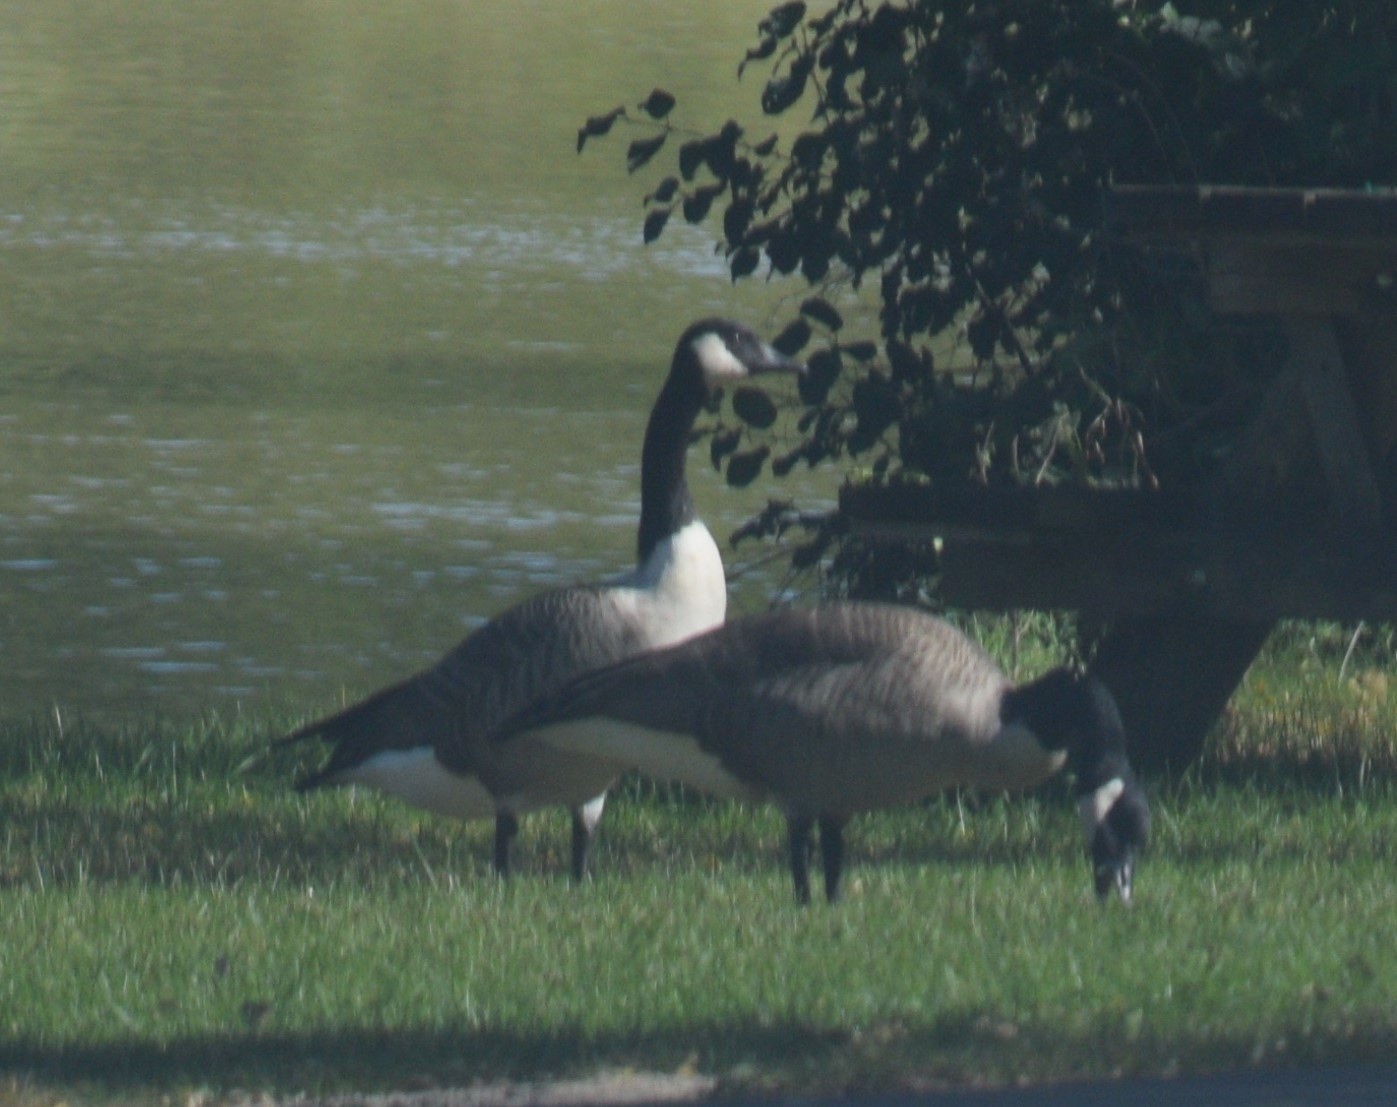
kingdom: Animalia
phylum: Chordata
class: Aves
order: Anseriformes
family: Anatidae
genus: Branta
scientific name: Branta canadensis
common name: Canada goose
